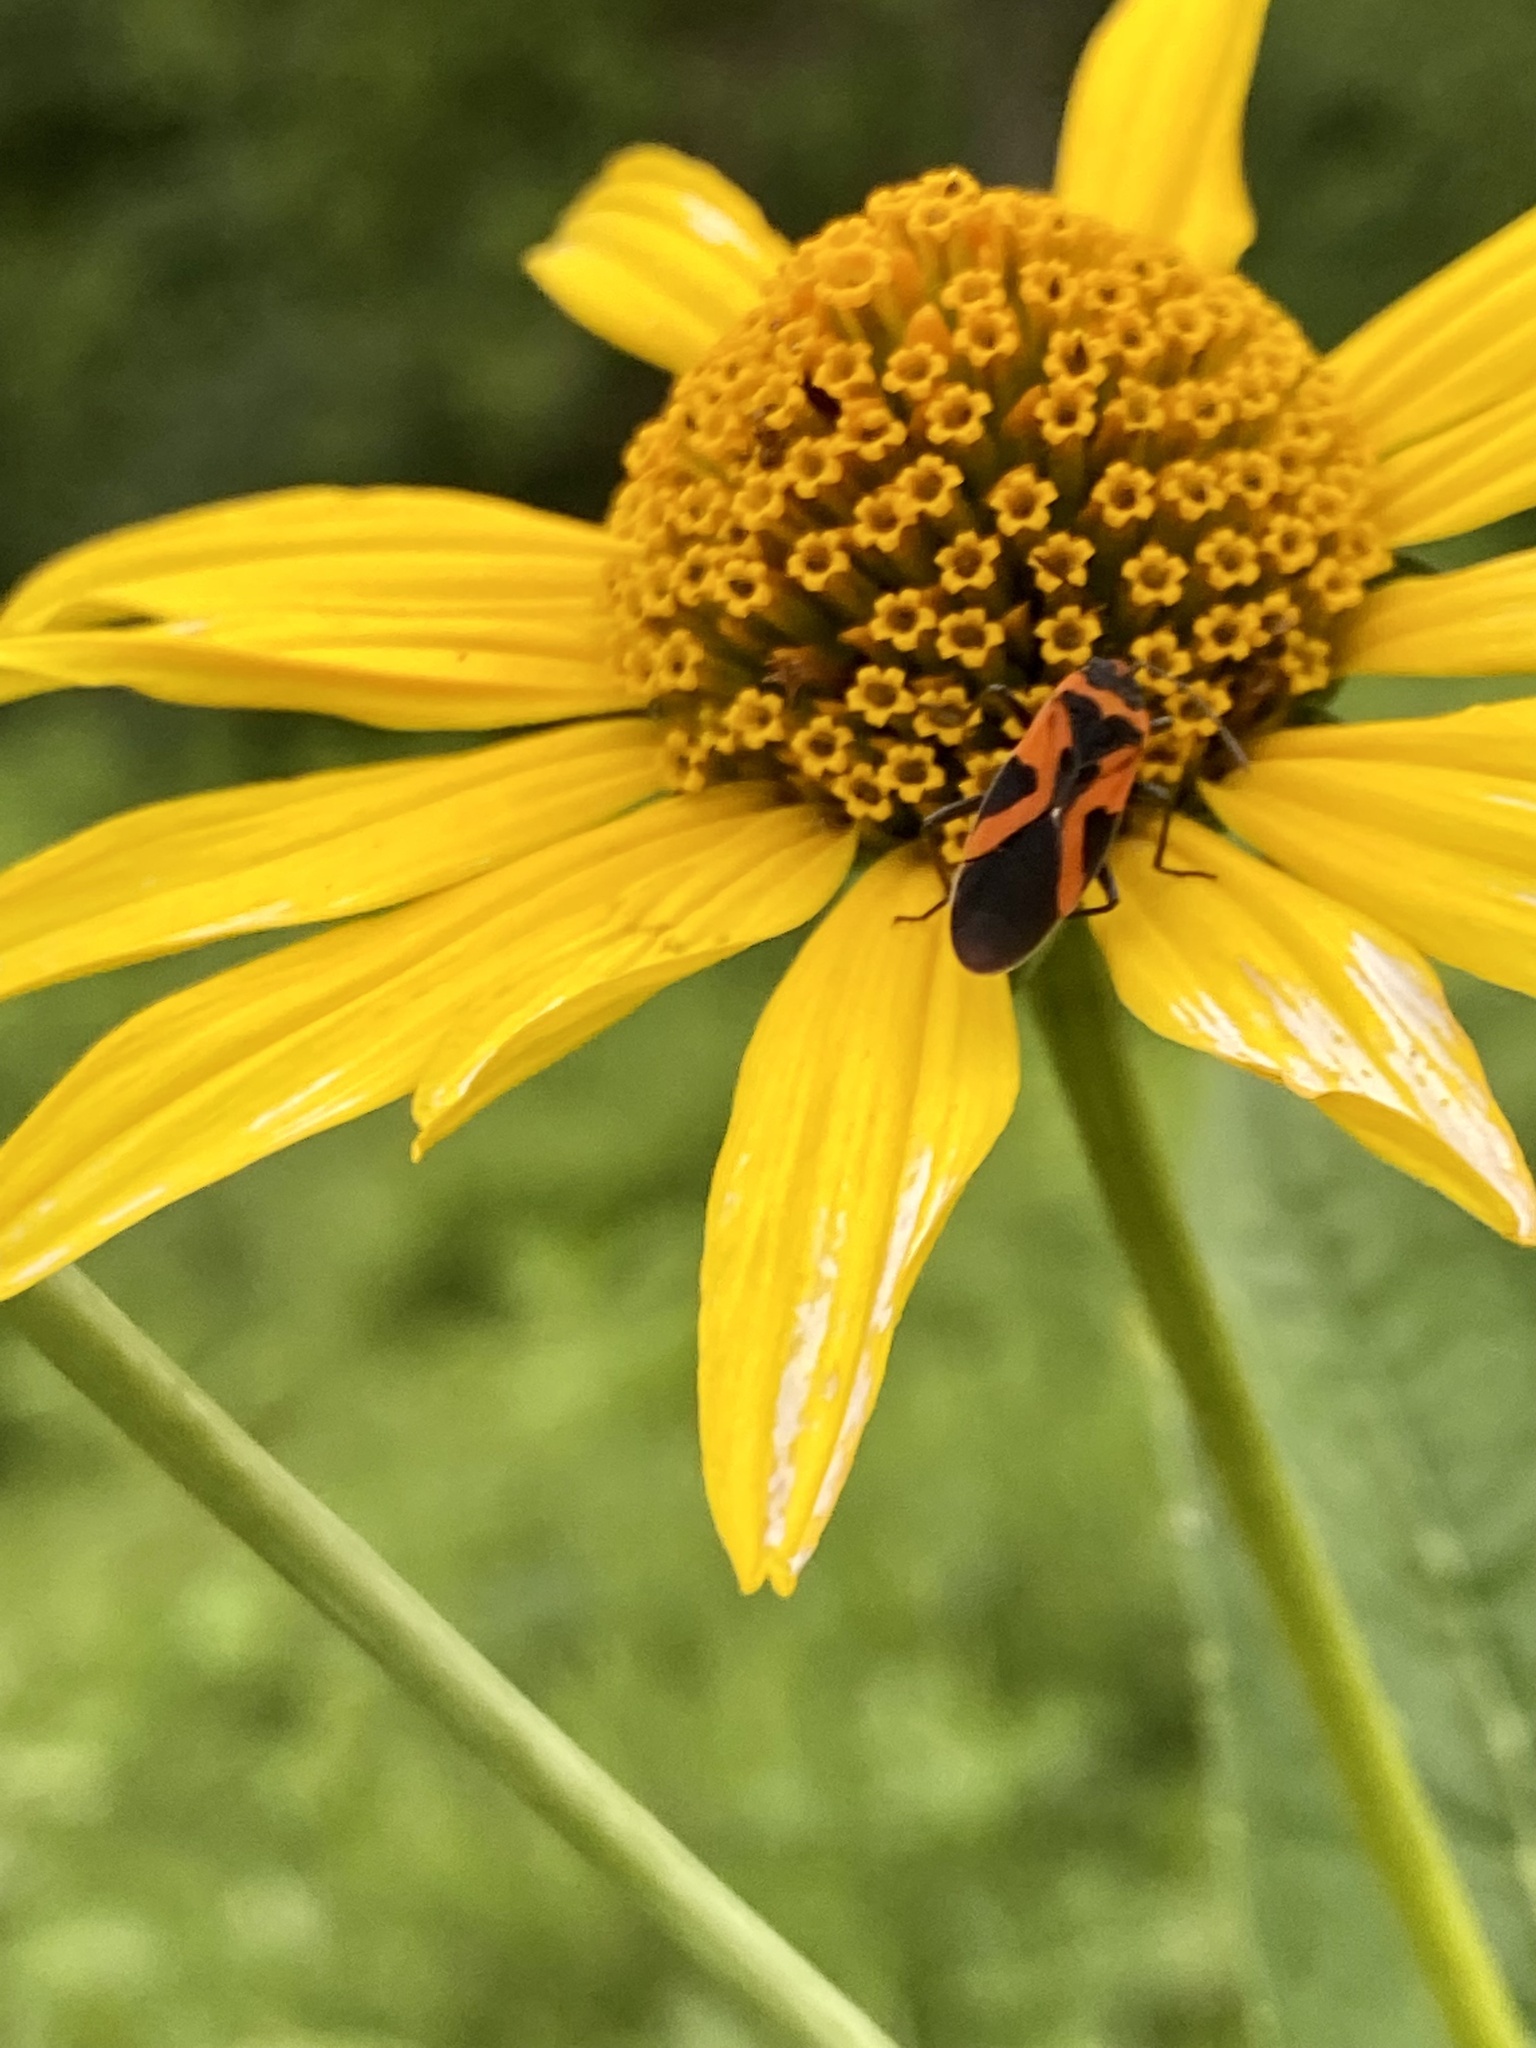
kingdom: Animalia
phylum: Arthropoda
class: Insecta
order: Hemiptera
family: Lygaeidae
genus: Lygaeus
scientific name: Lygaeus turcicus
